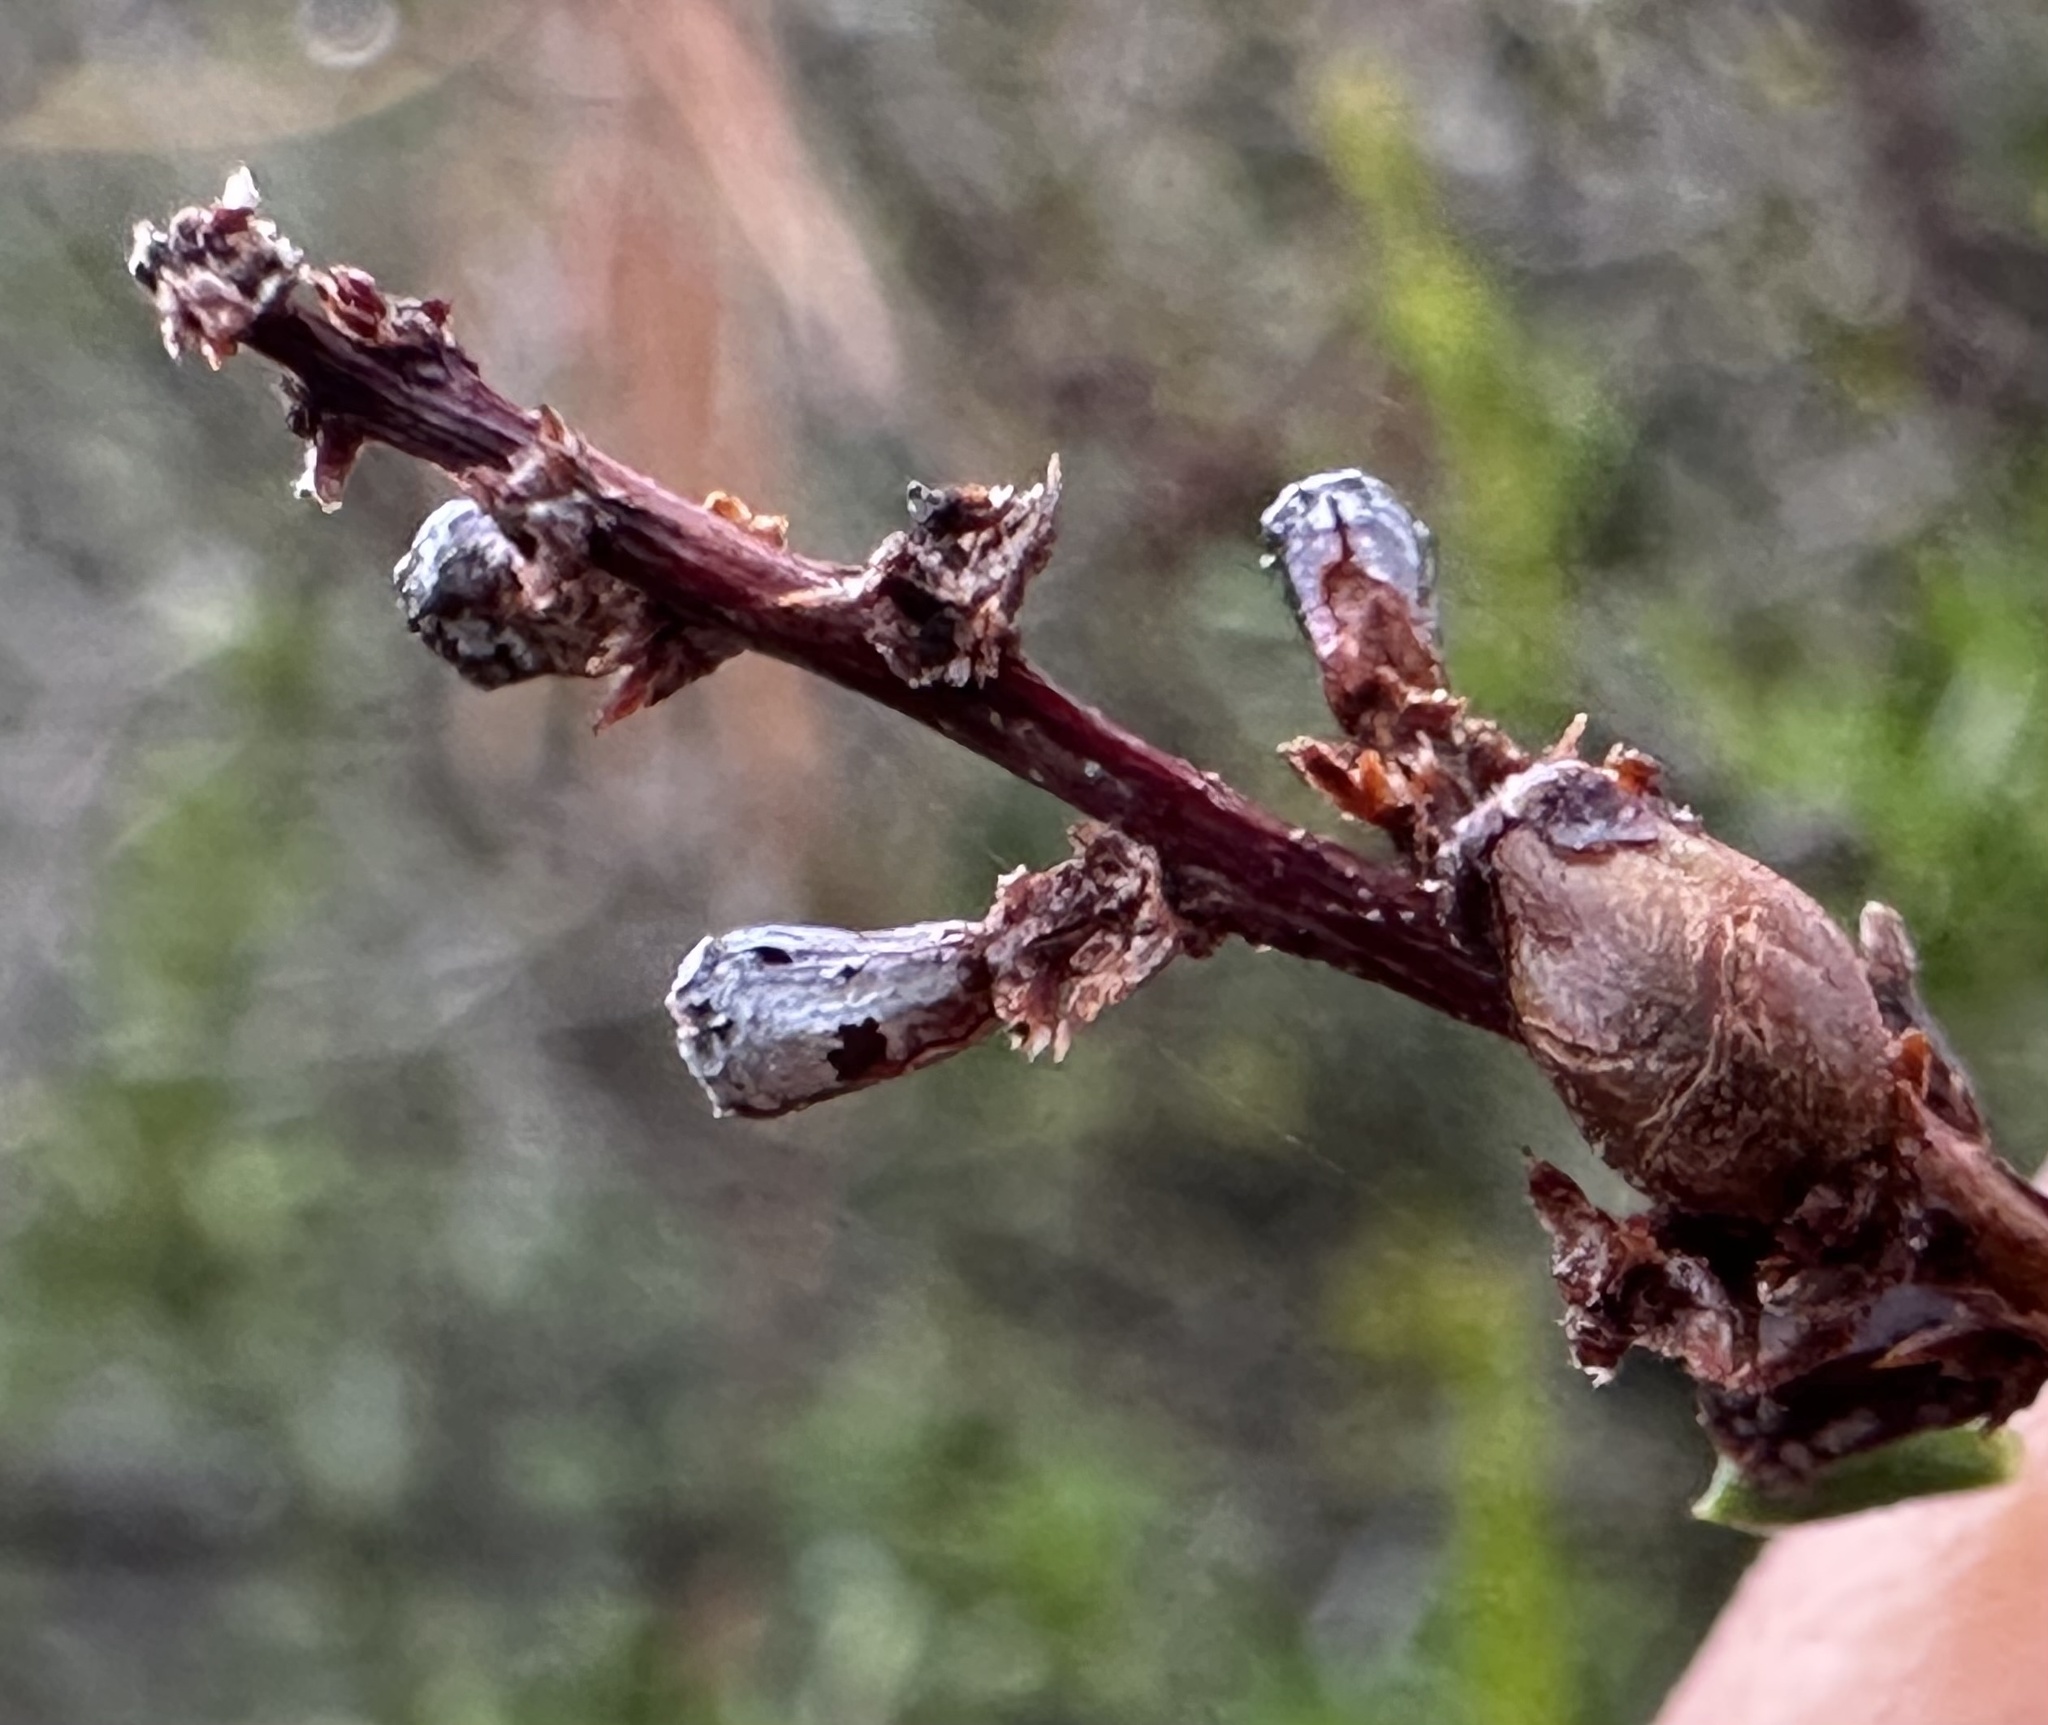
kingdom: Animalia
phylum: Arthropoda
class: Insecta
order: Diptera
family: Cecidomyiidae
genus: Asphondylia
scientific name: Asphondylia adenostoma
